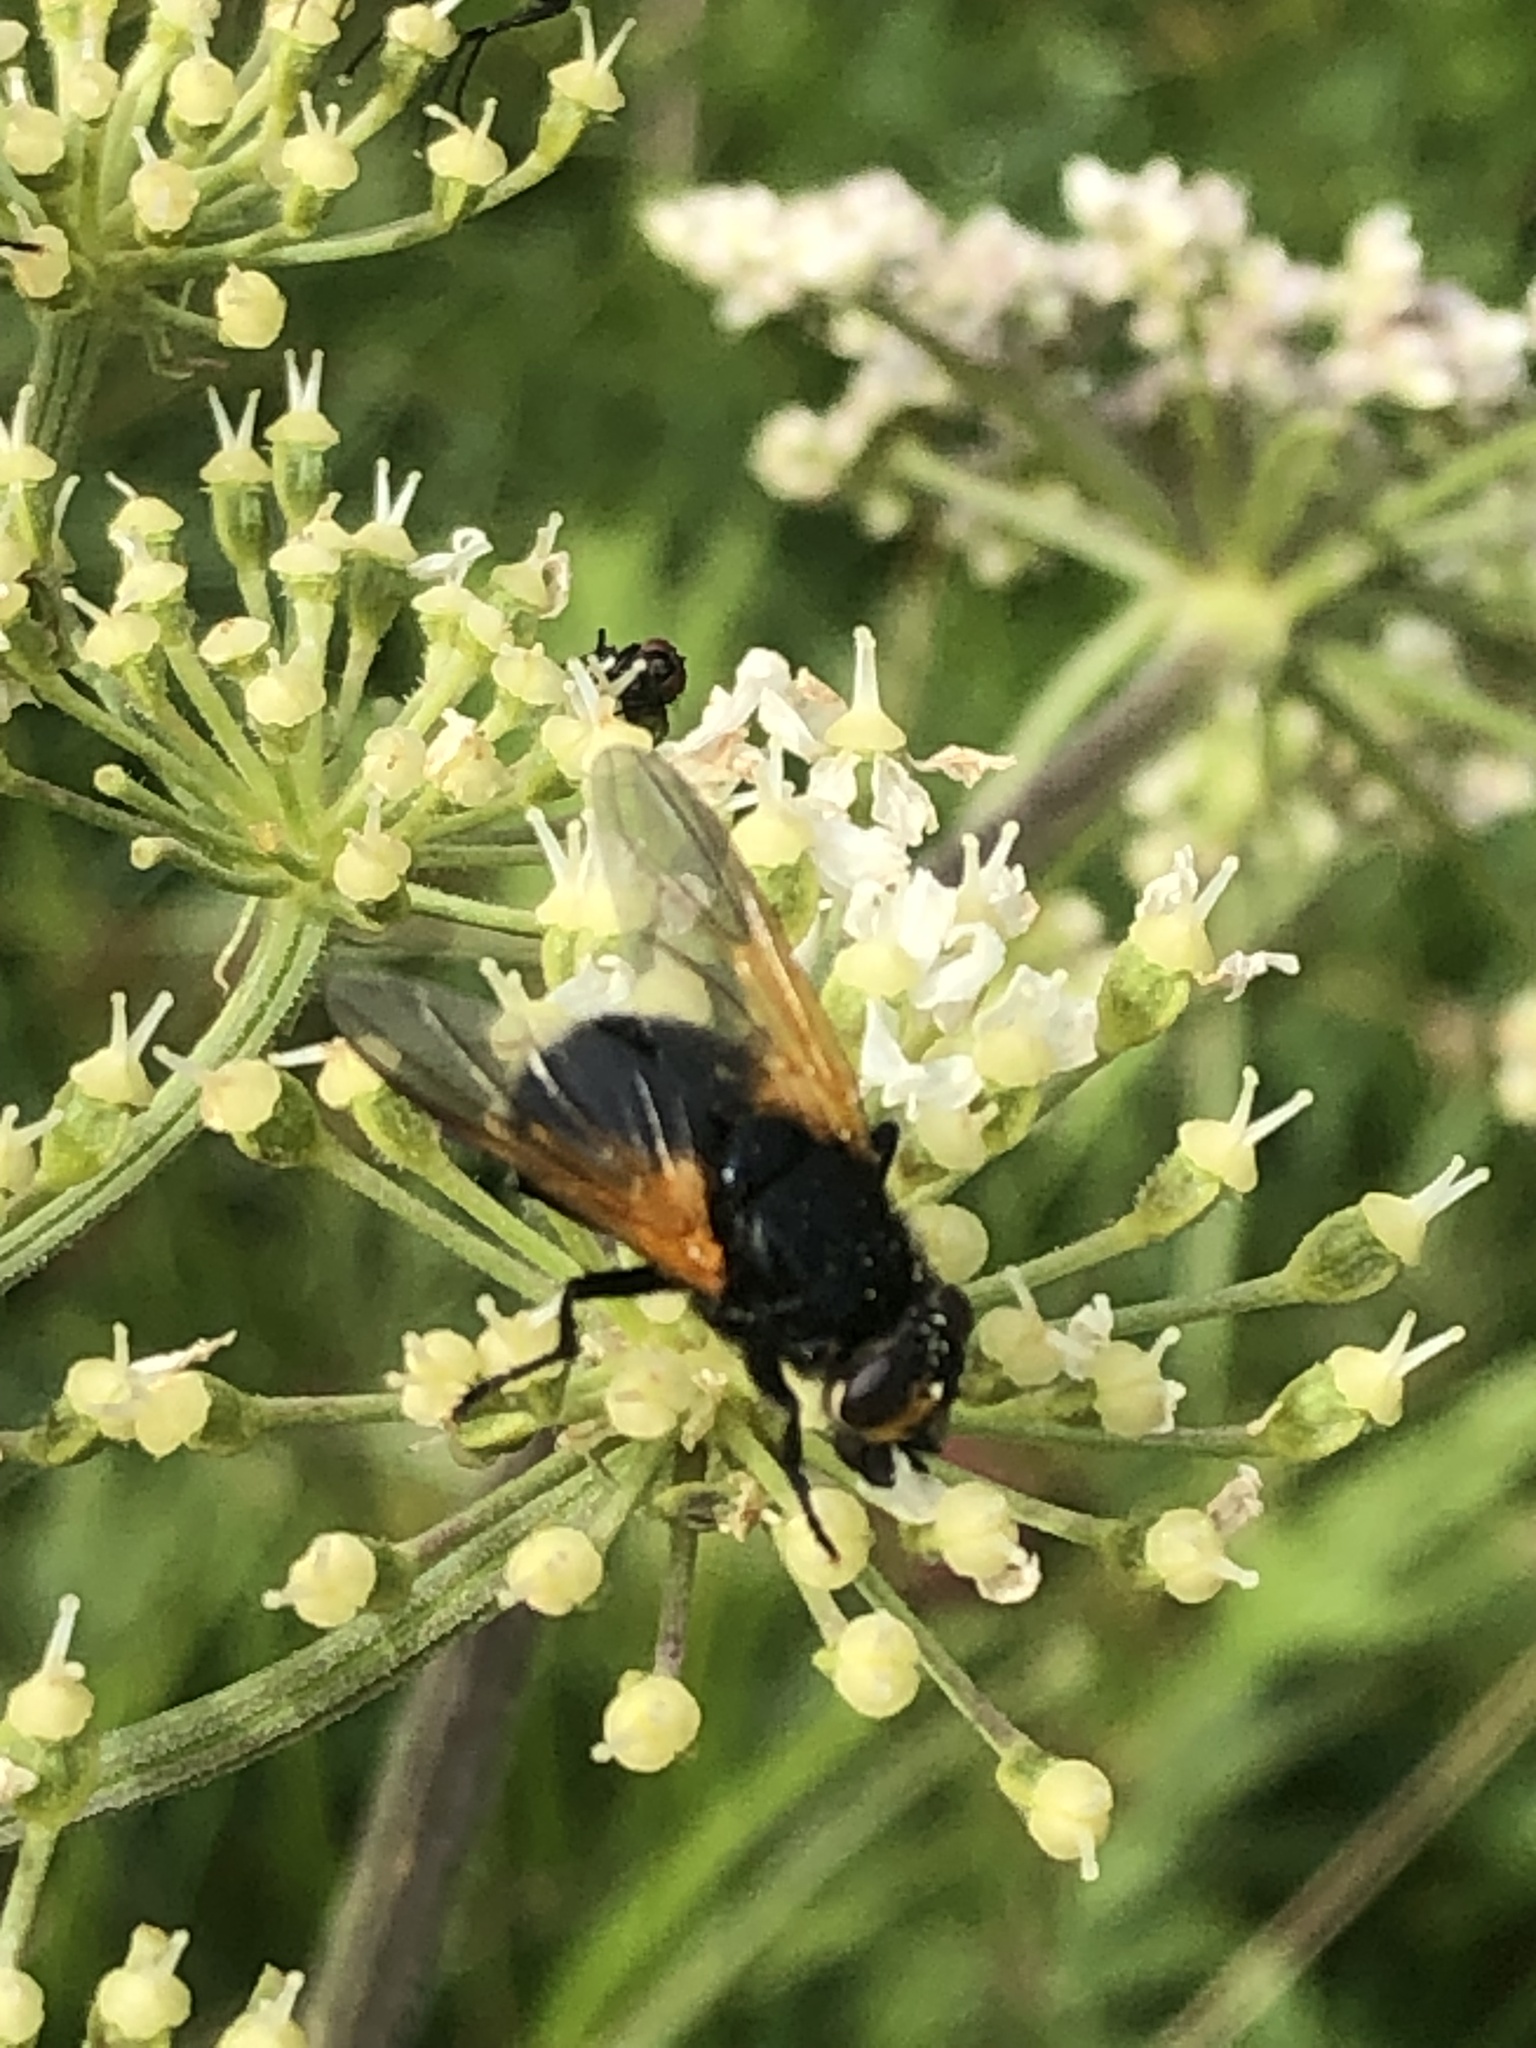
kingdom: Animalia
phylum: Arthropoda
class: Insecta
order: Diptera
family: Muscidae
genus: Mesembrina
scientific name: Mesembrina meridiana
